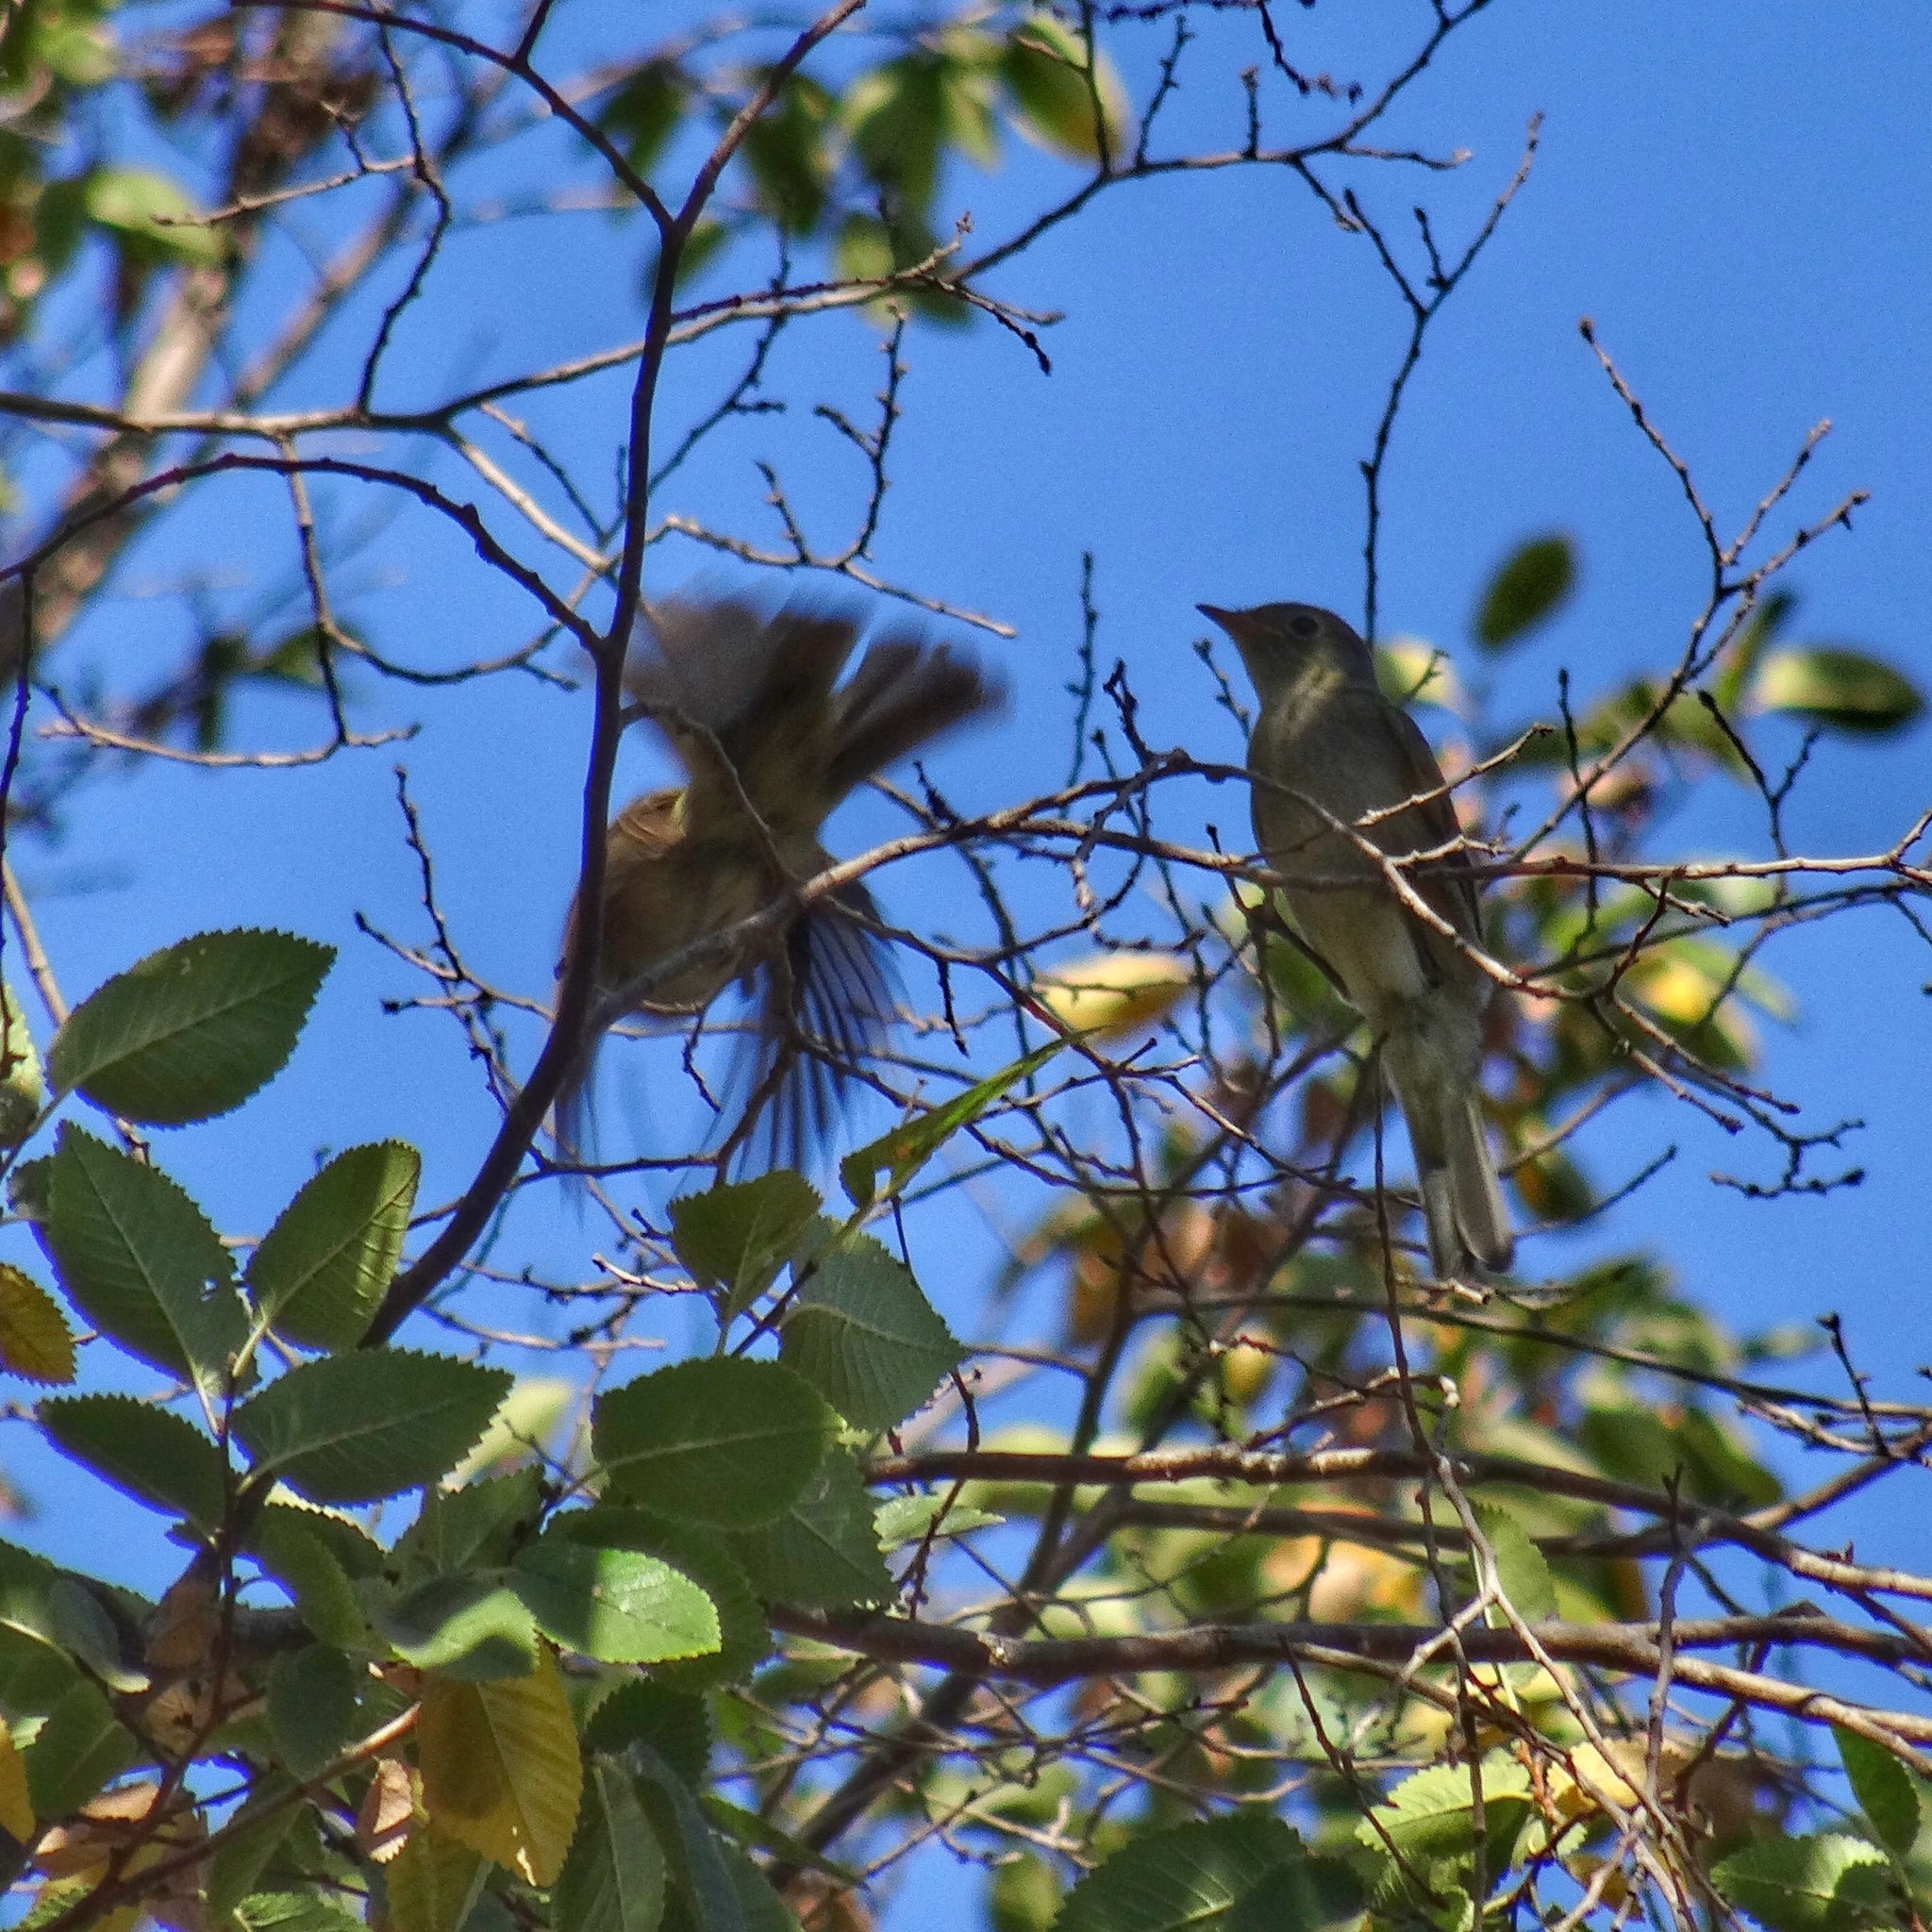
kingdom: Animalia
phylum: Chordata
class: Aves
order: Passeriformes
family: Tyrannidae
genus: Elaenia
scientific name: Elaenia albiceps
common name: White-crested elaenia
